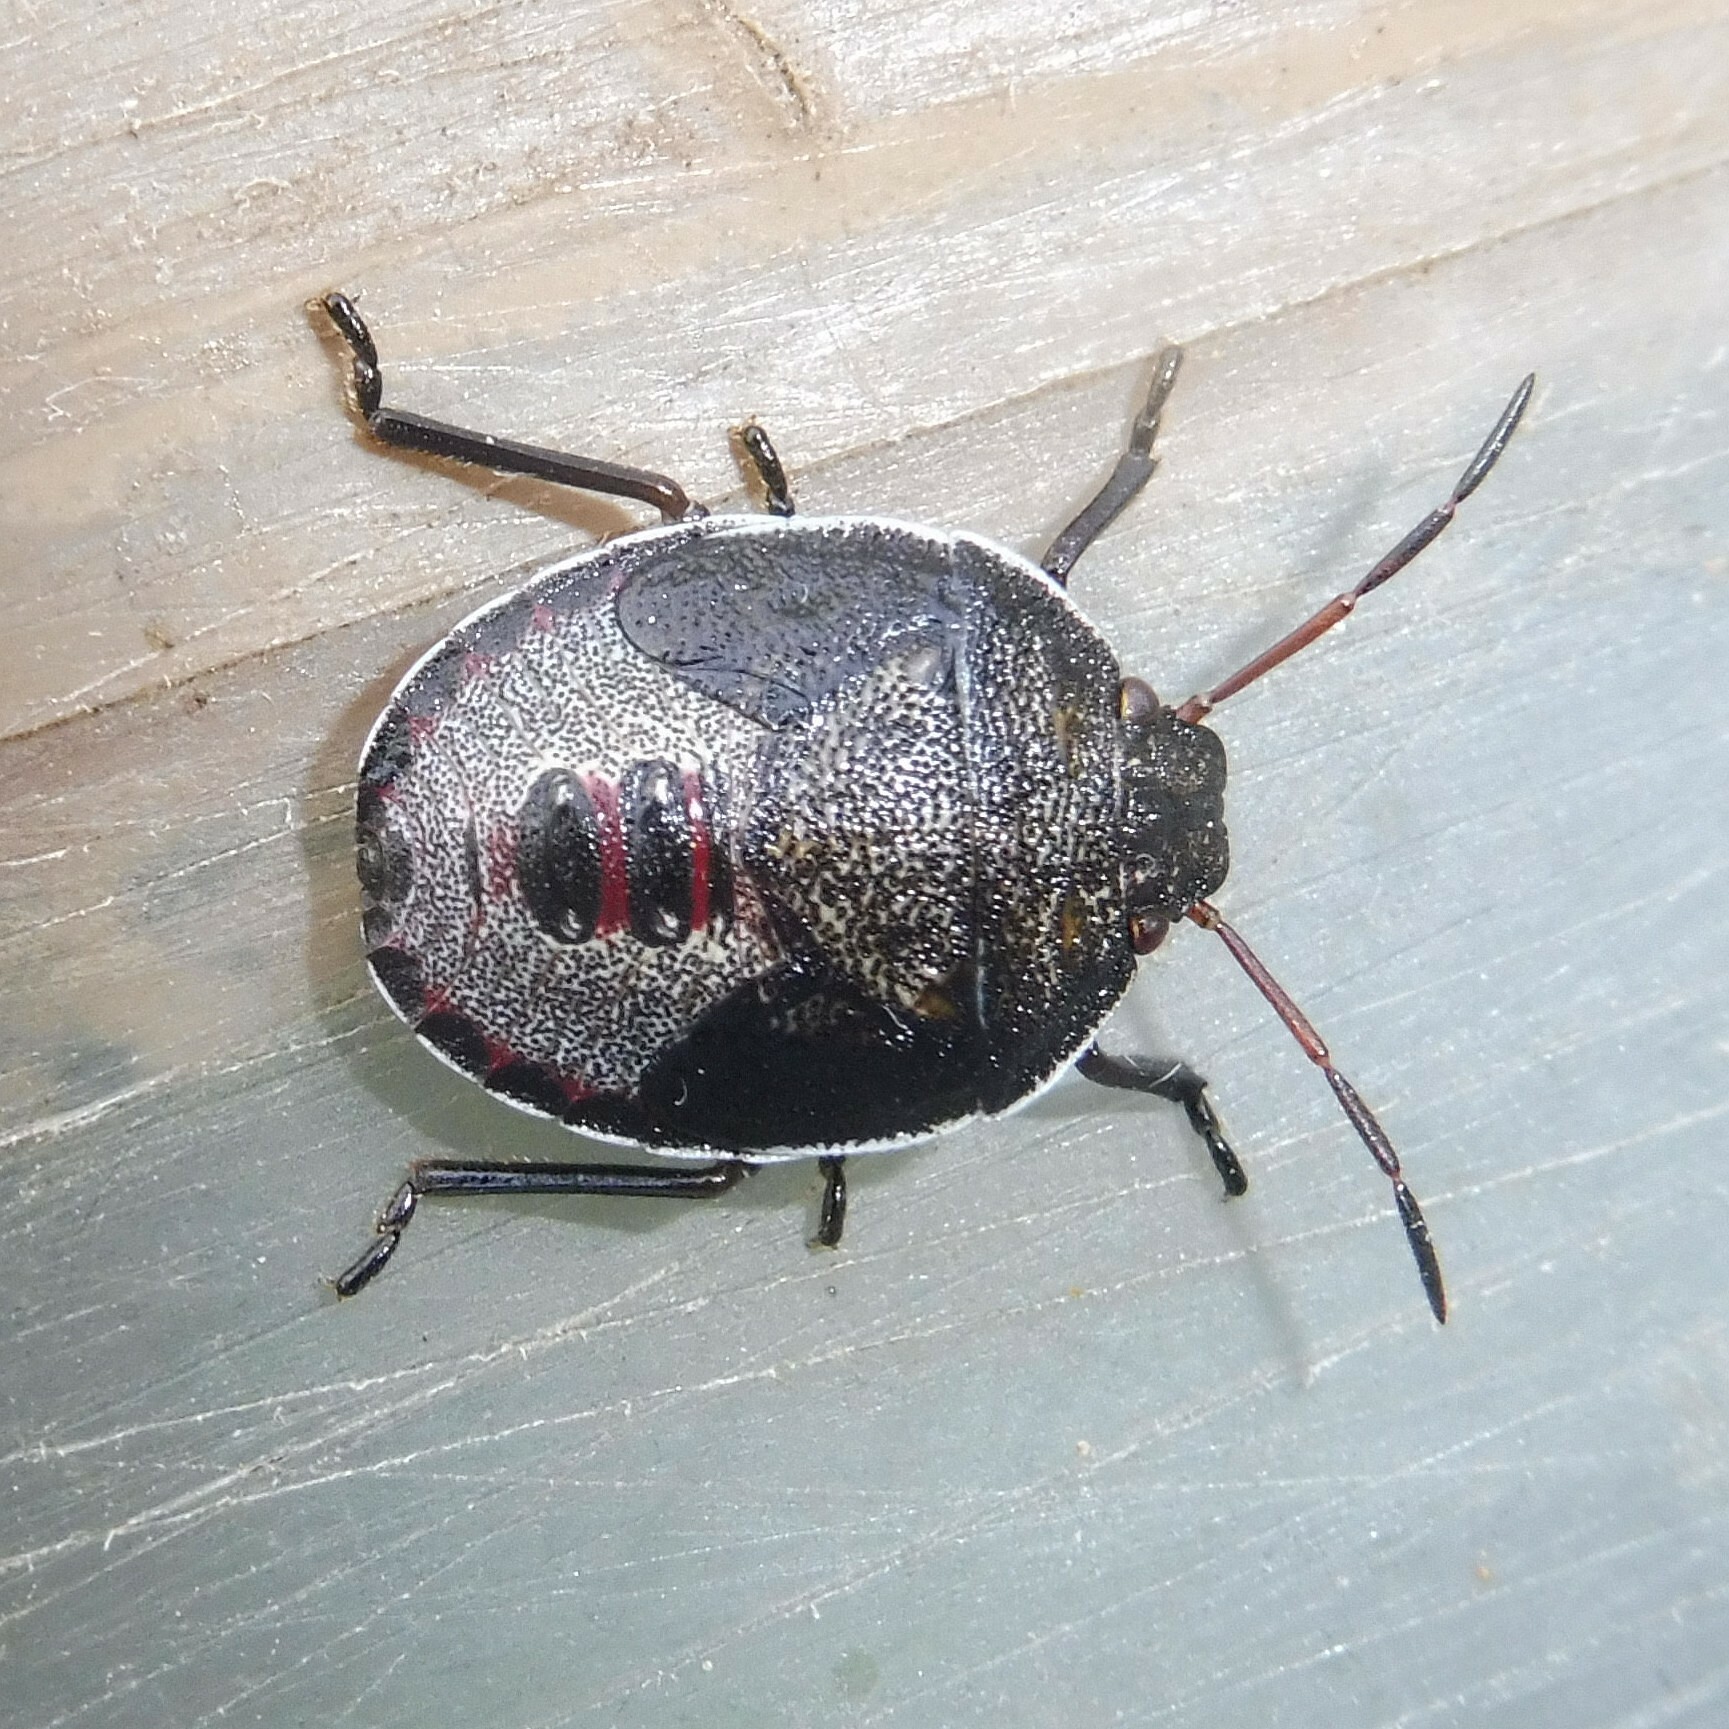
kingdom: Animalia
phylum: Arthropoda
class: Insecta
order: Hemiptera
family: Pentatomidae
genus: Piezodorus
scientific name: Piezodorus lituratus
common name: Stink bug
